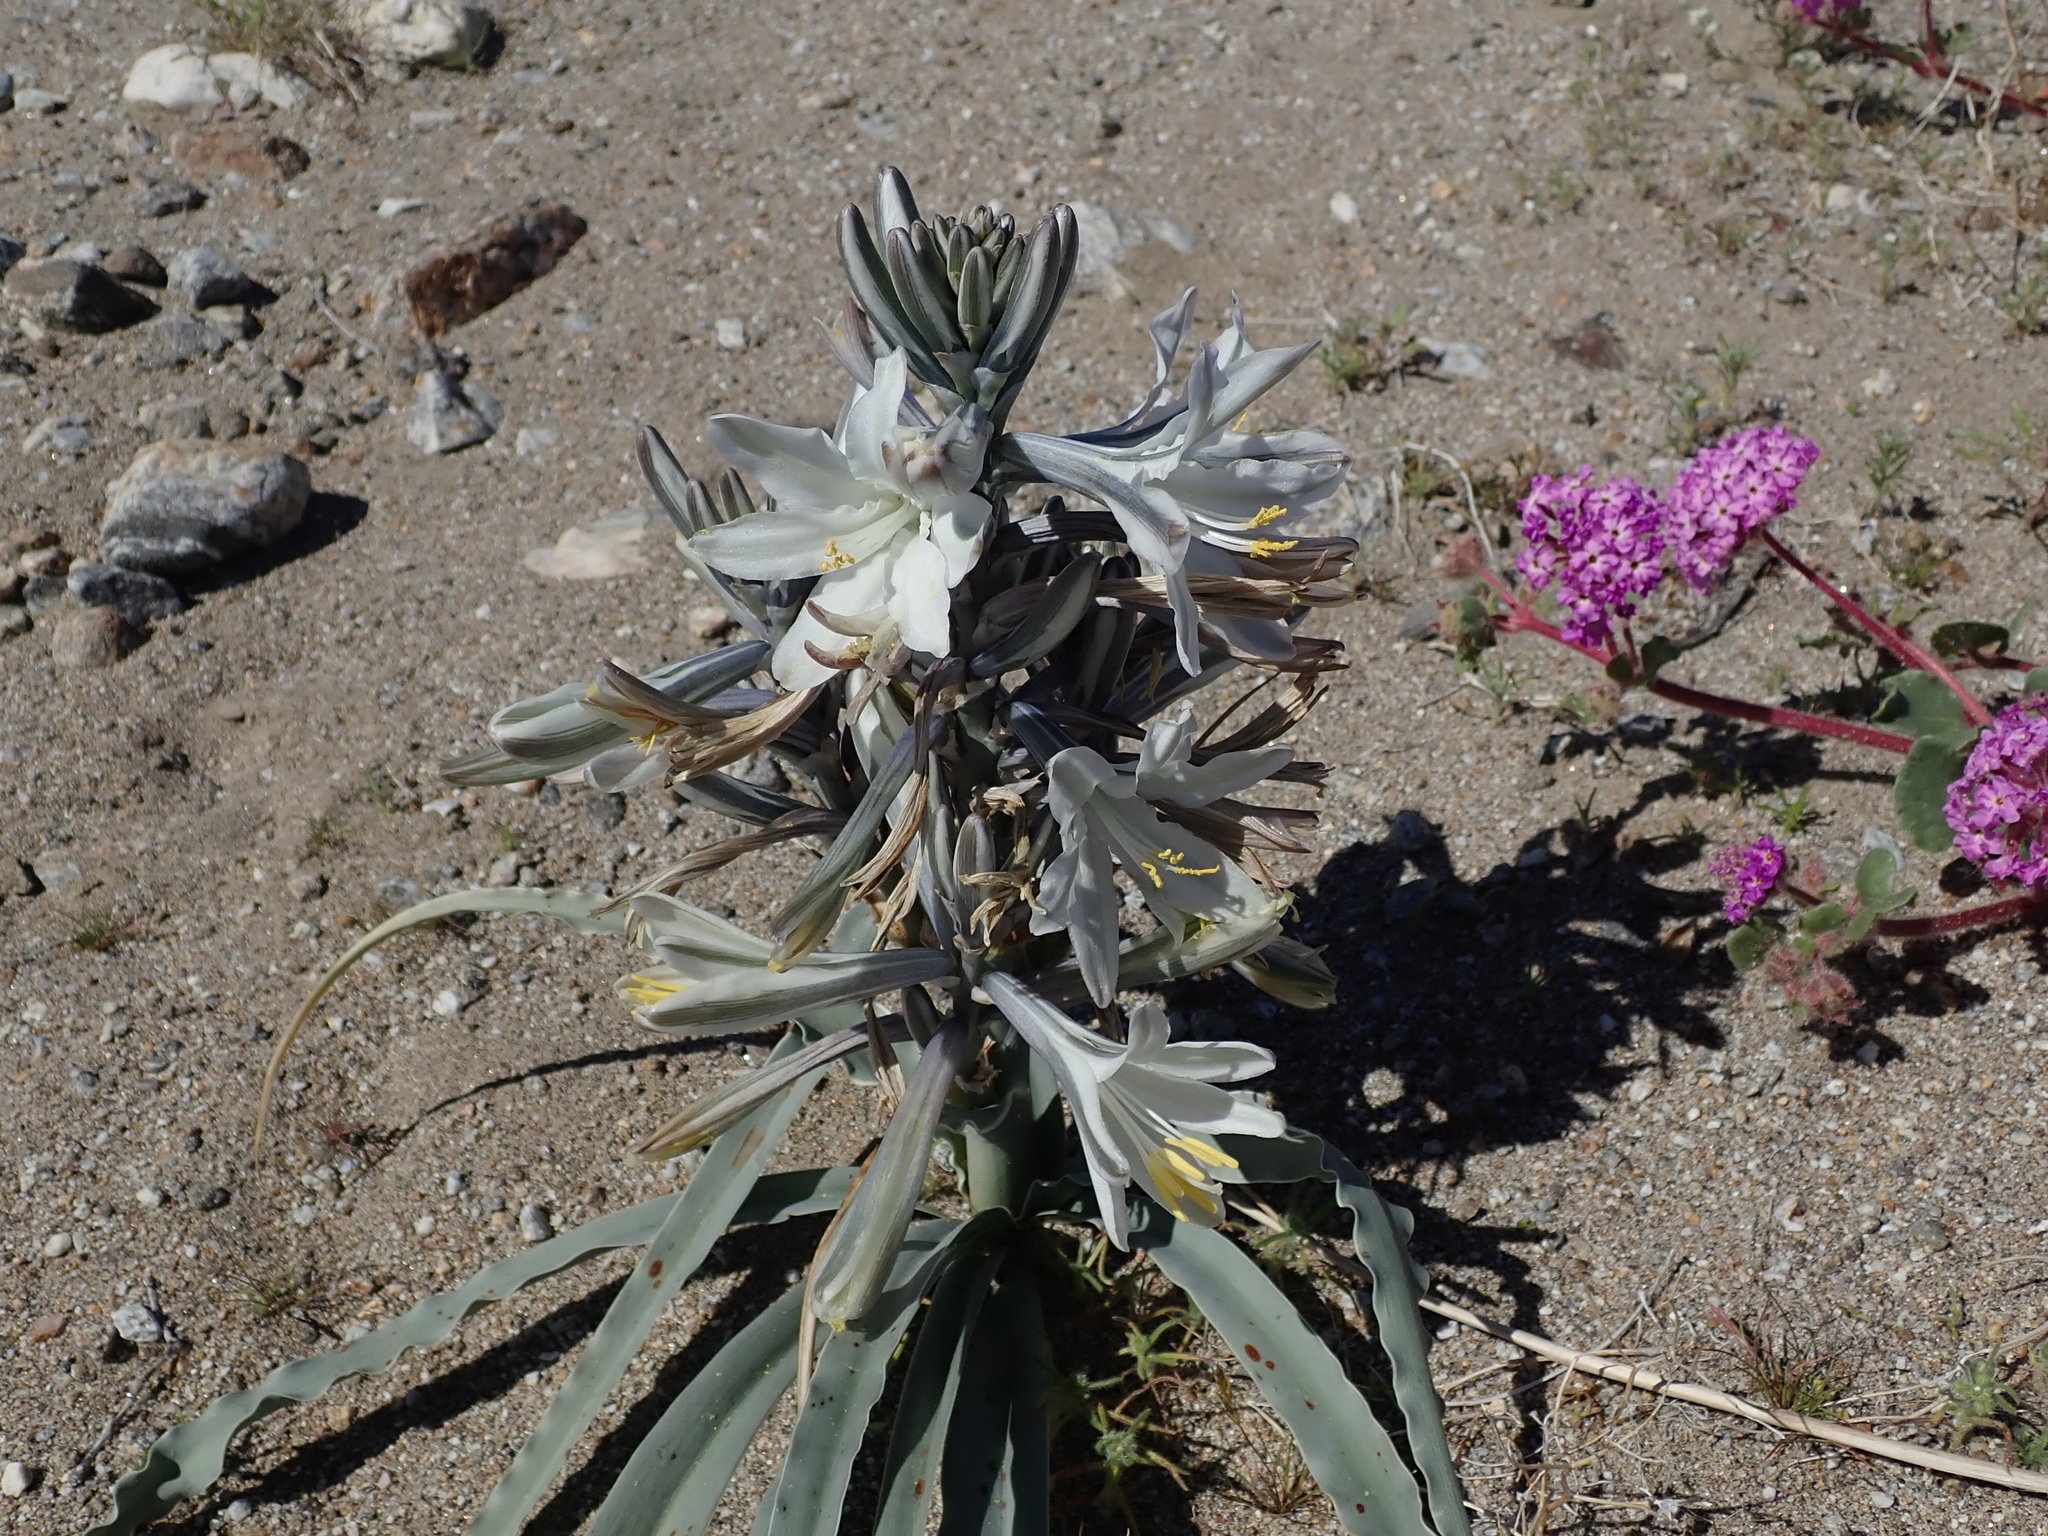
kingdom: Plantae
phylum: Tracheophyta
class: Liliopsida
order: Asparagales
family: Asparagaceae
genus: Hesperocallis
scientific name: Hesperocallis undulata
